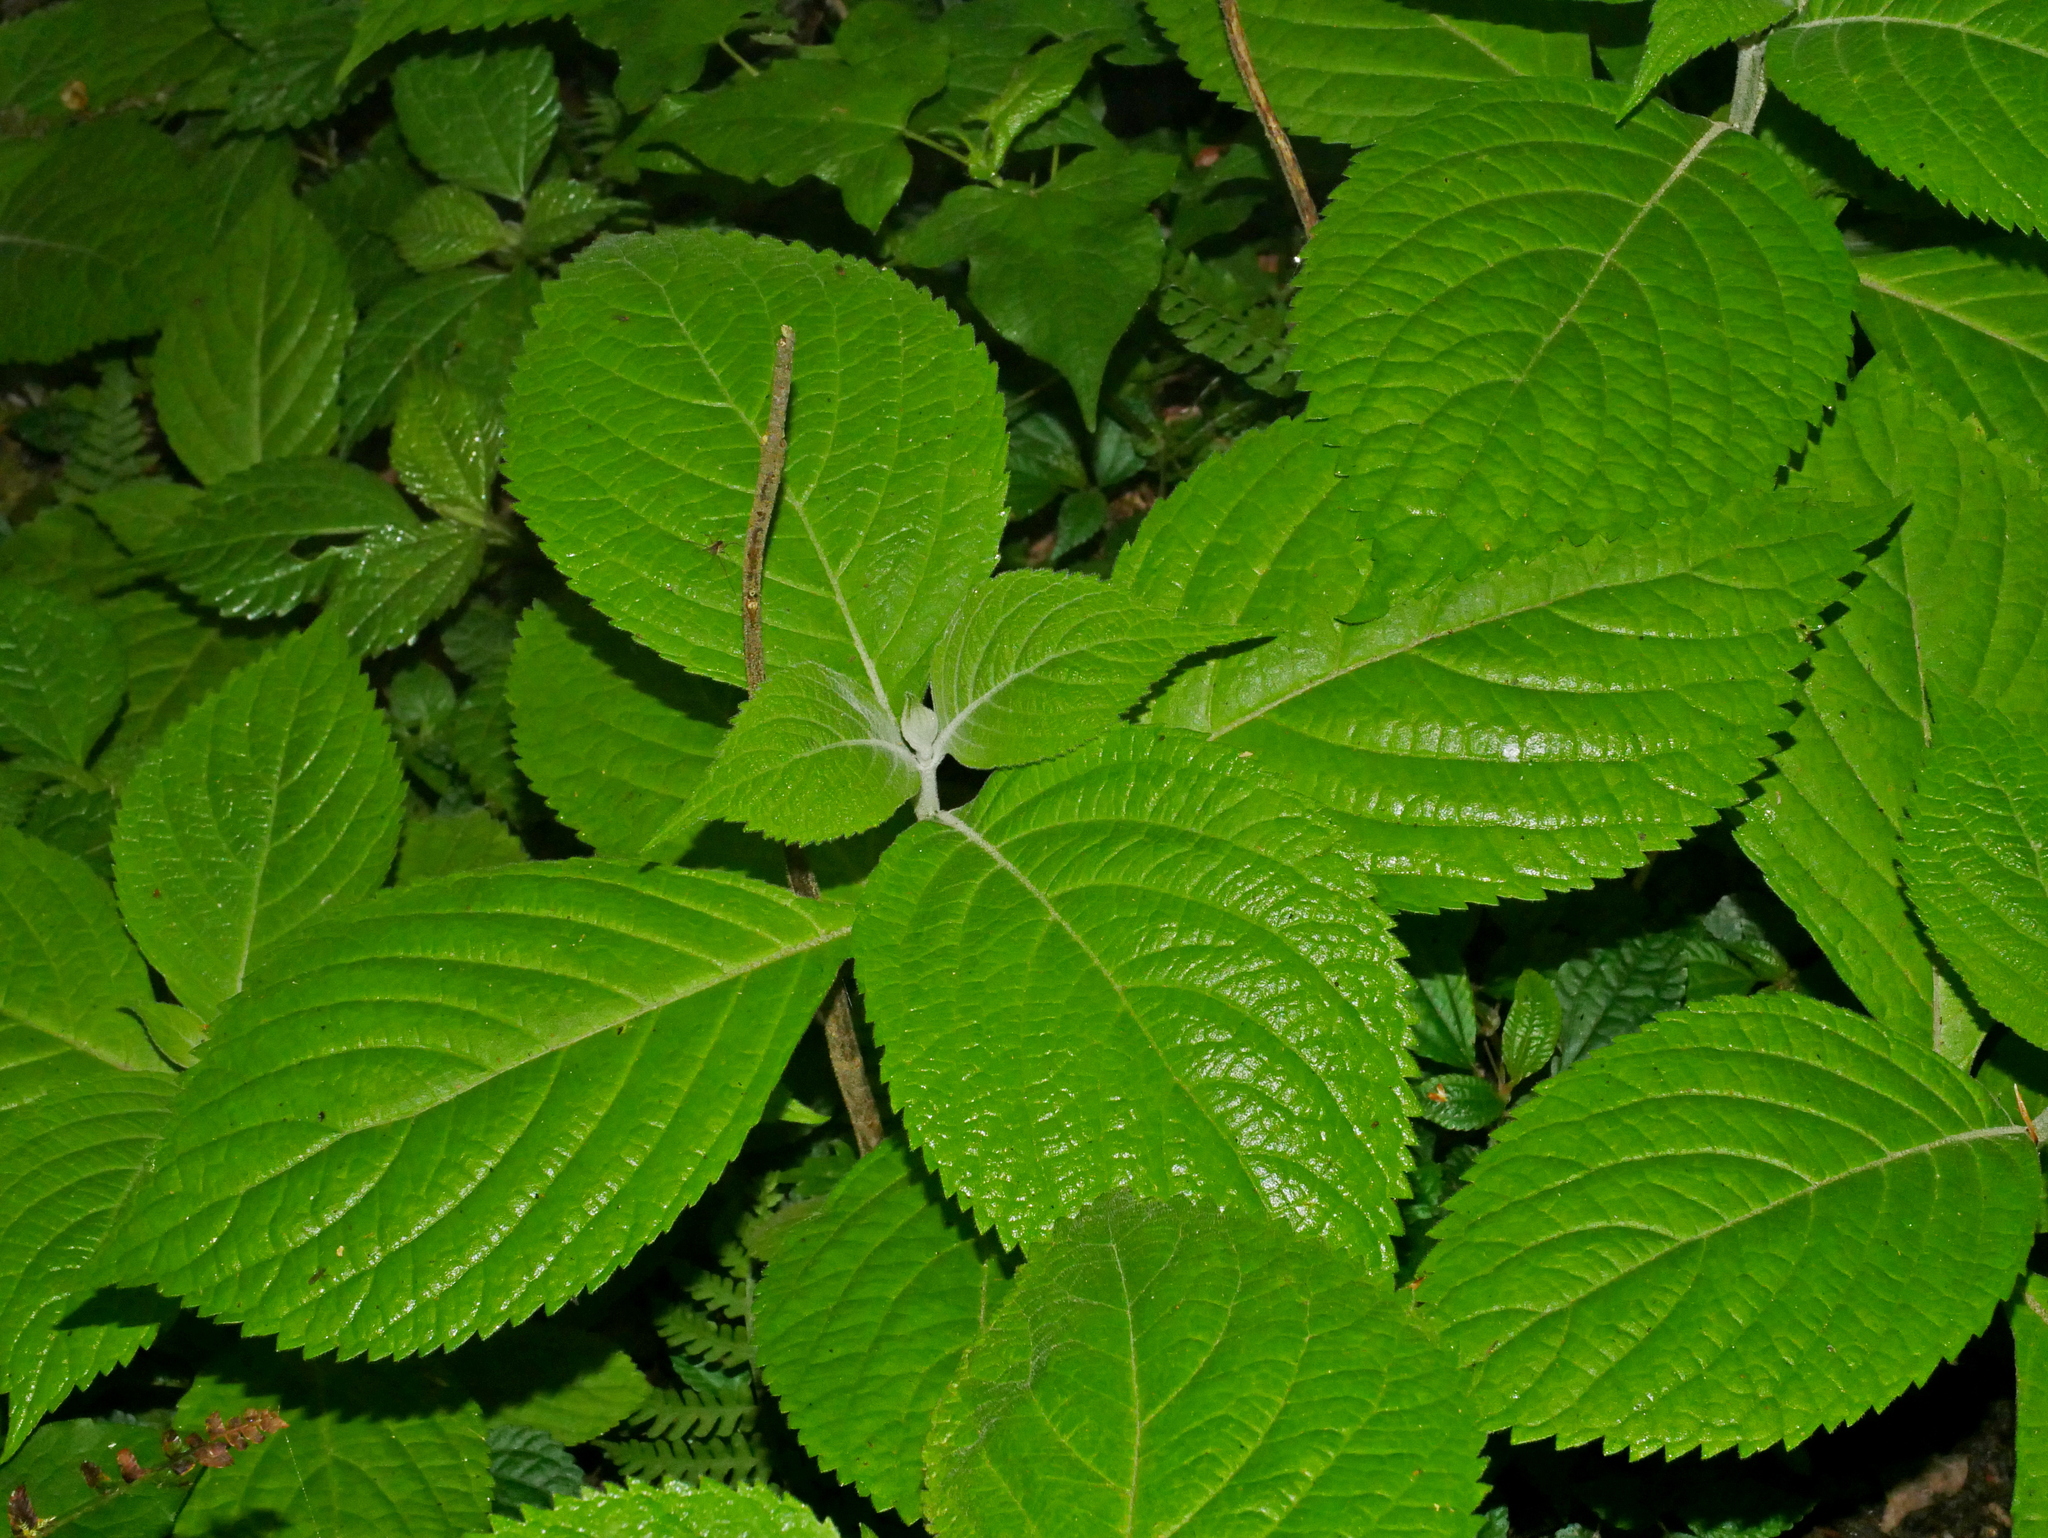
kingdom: Plantae
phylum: Tracheophyta
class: Magnoliopsida
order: Lamiales
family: Lamiaceae
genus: Comanthosphace
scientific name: Comanthosphace formosana
